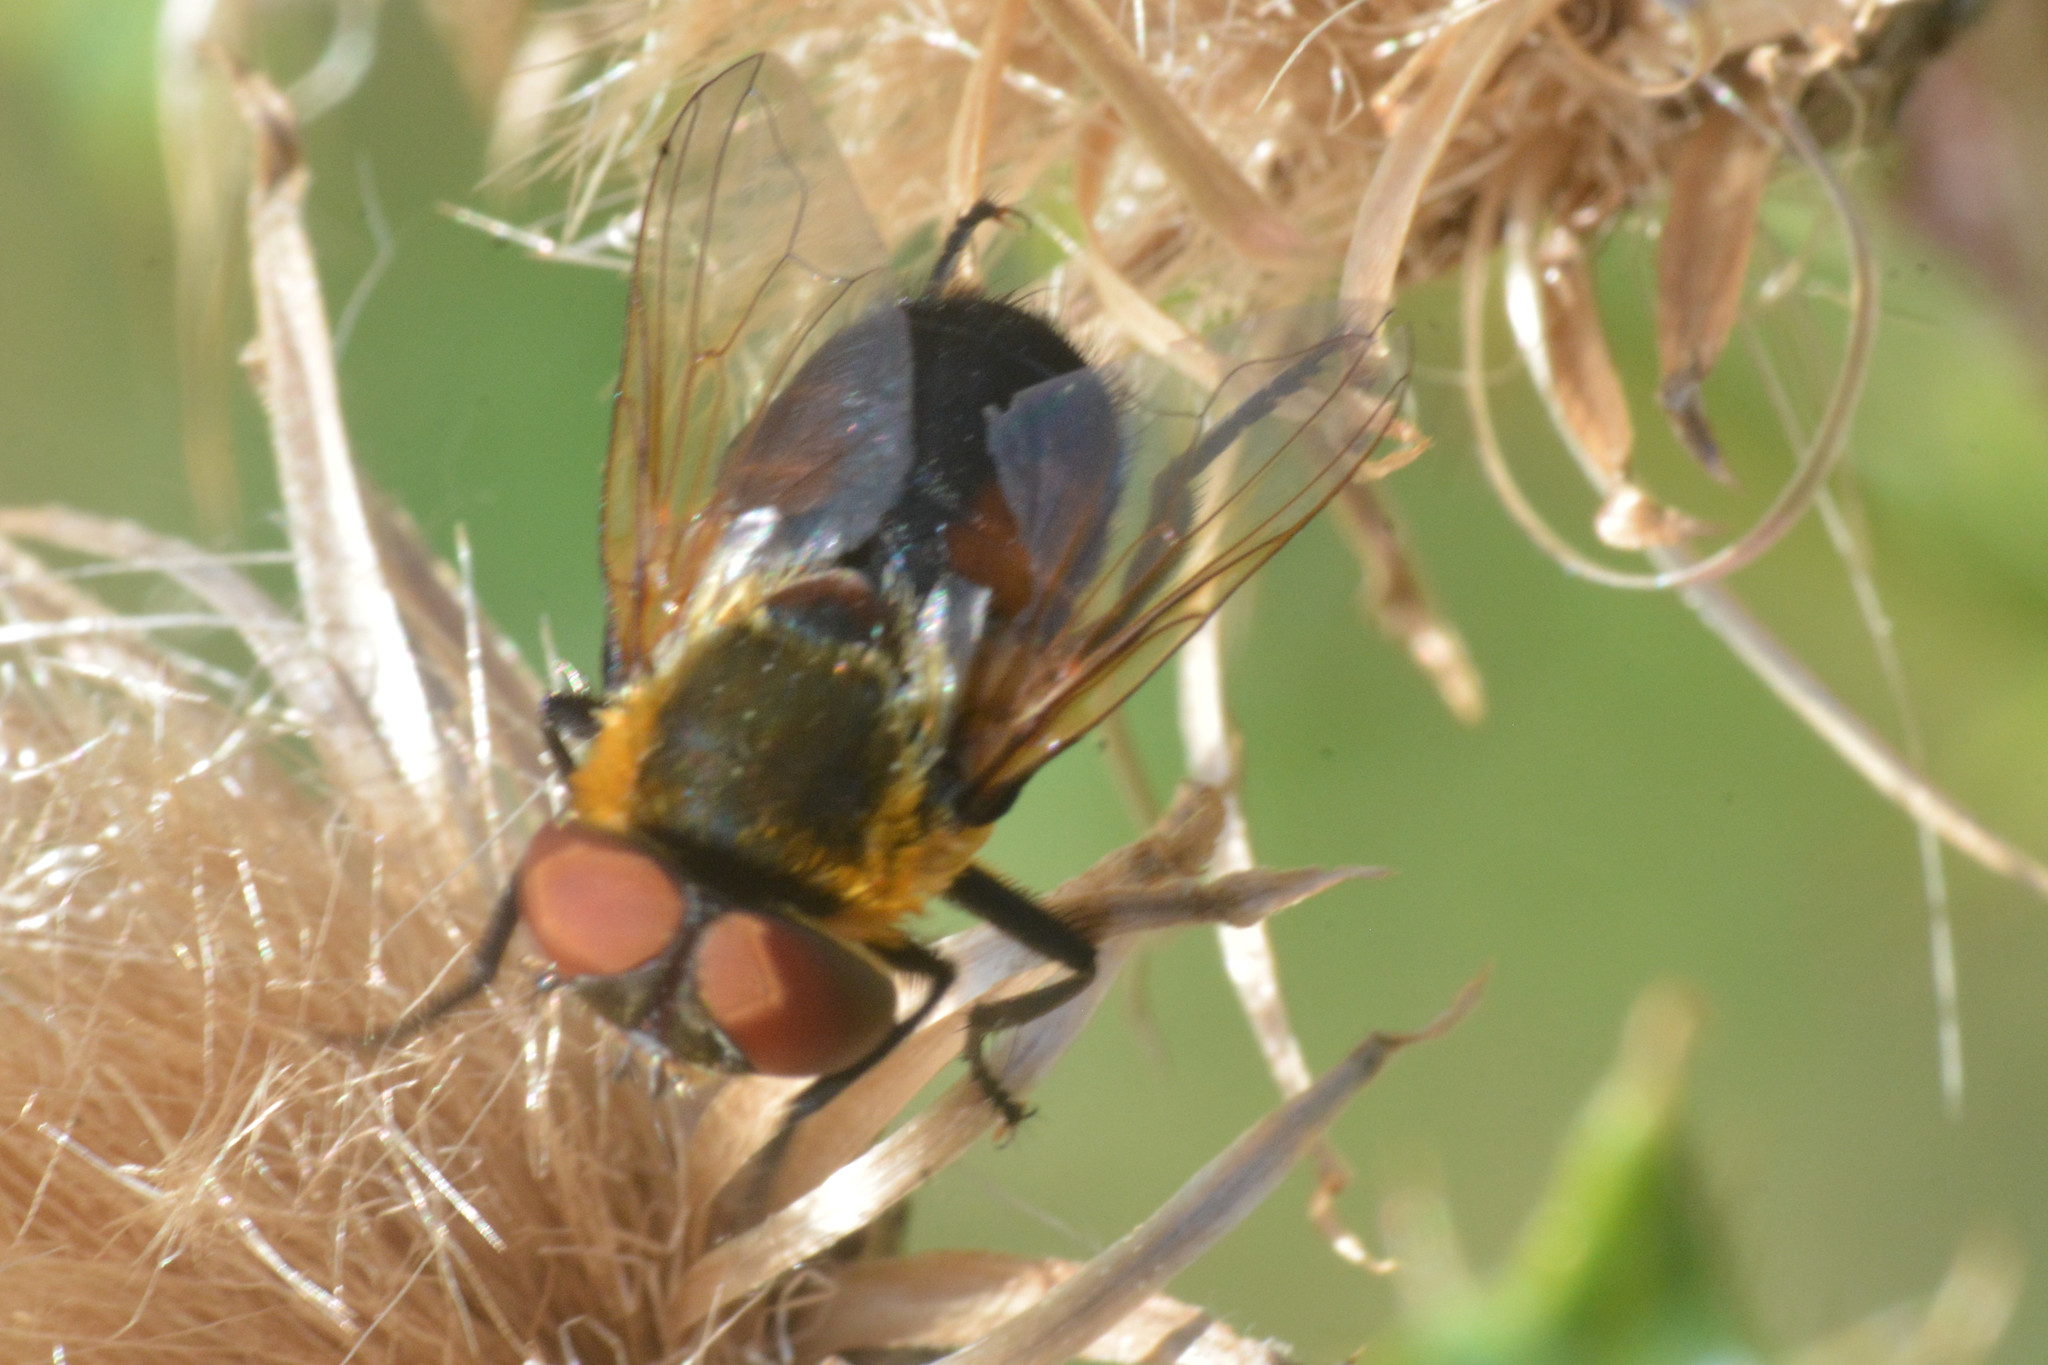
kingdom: Animalia
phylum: Arthropoda
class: Insecta
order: Diptera
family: Tachinidae
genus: Phasia
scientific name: Phasia hemiptera
